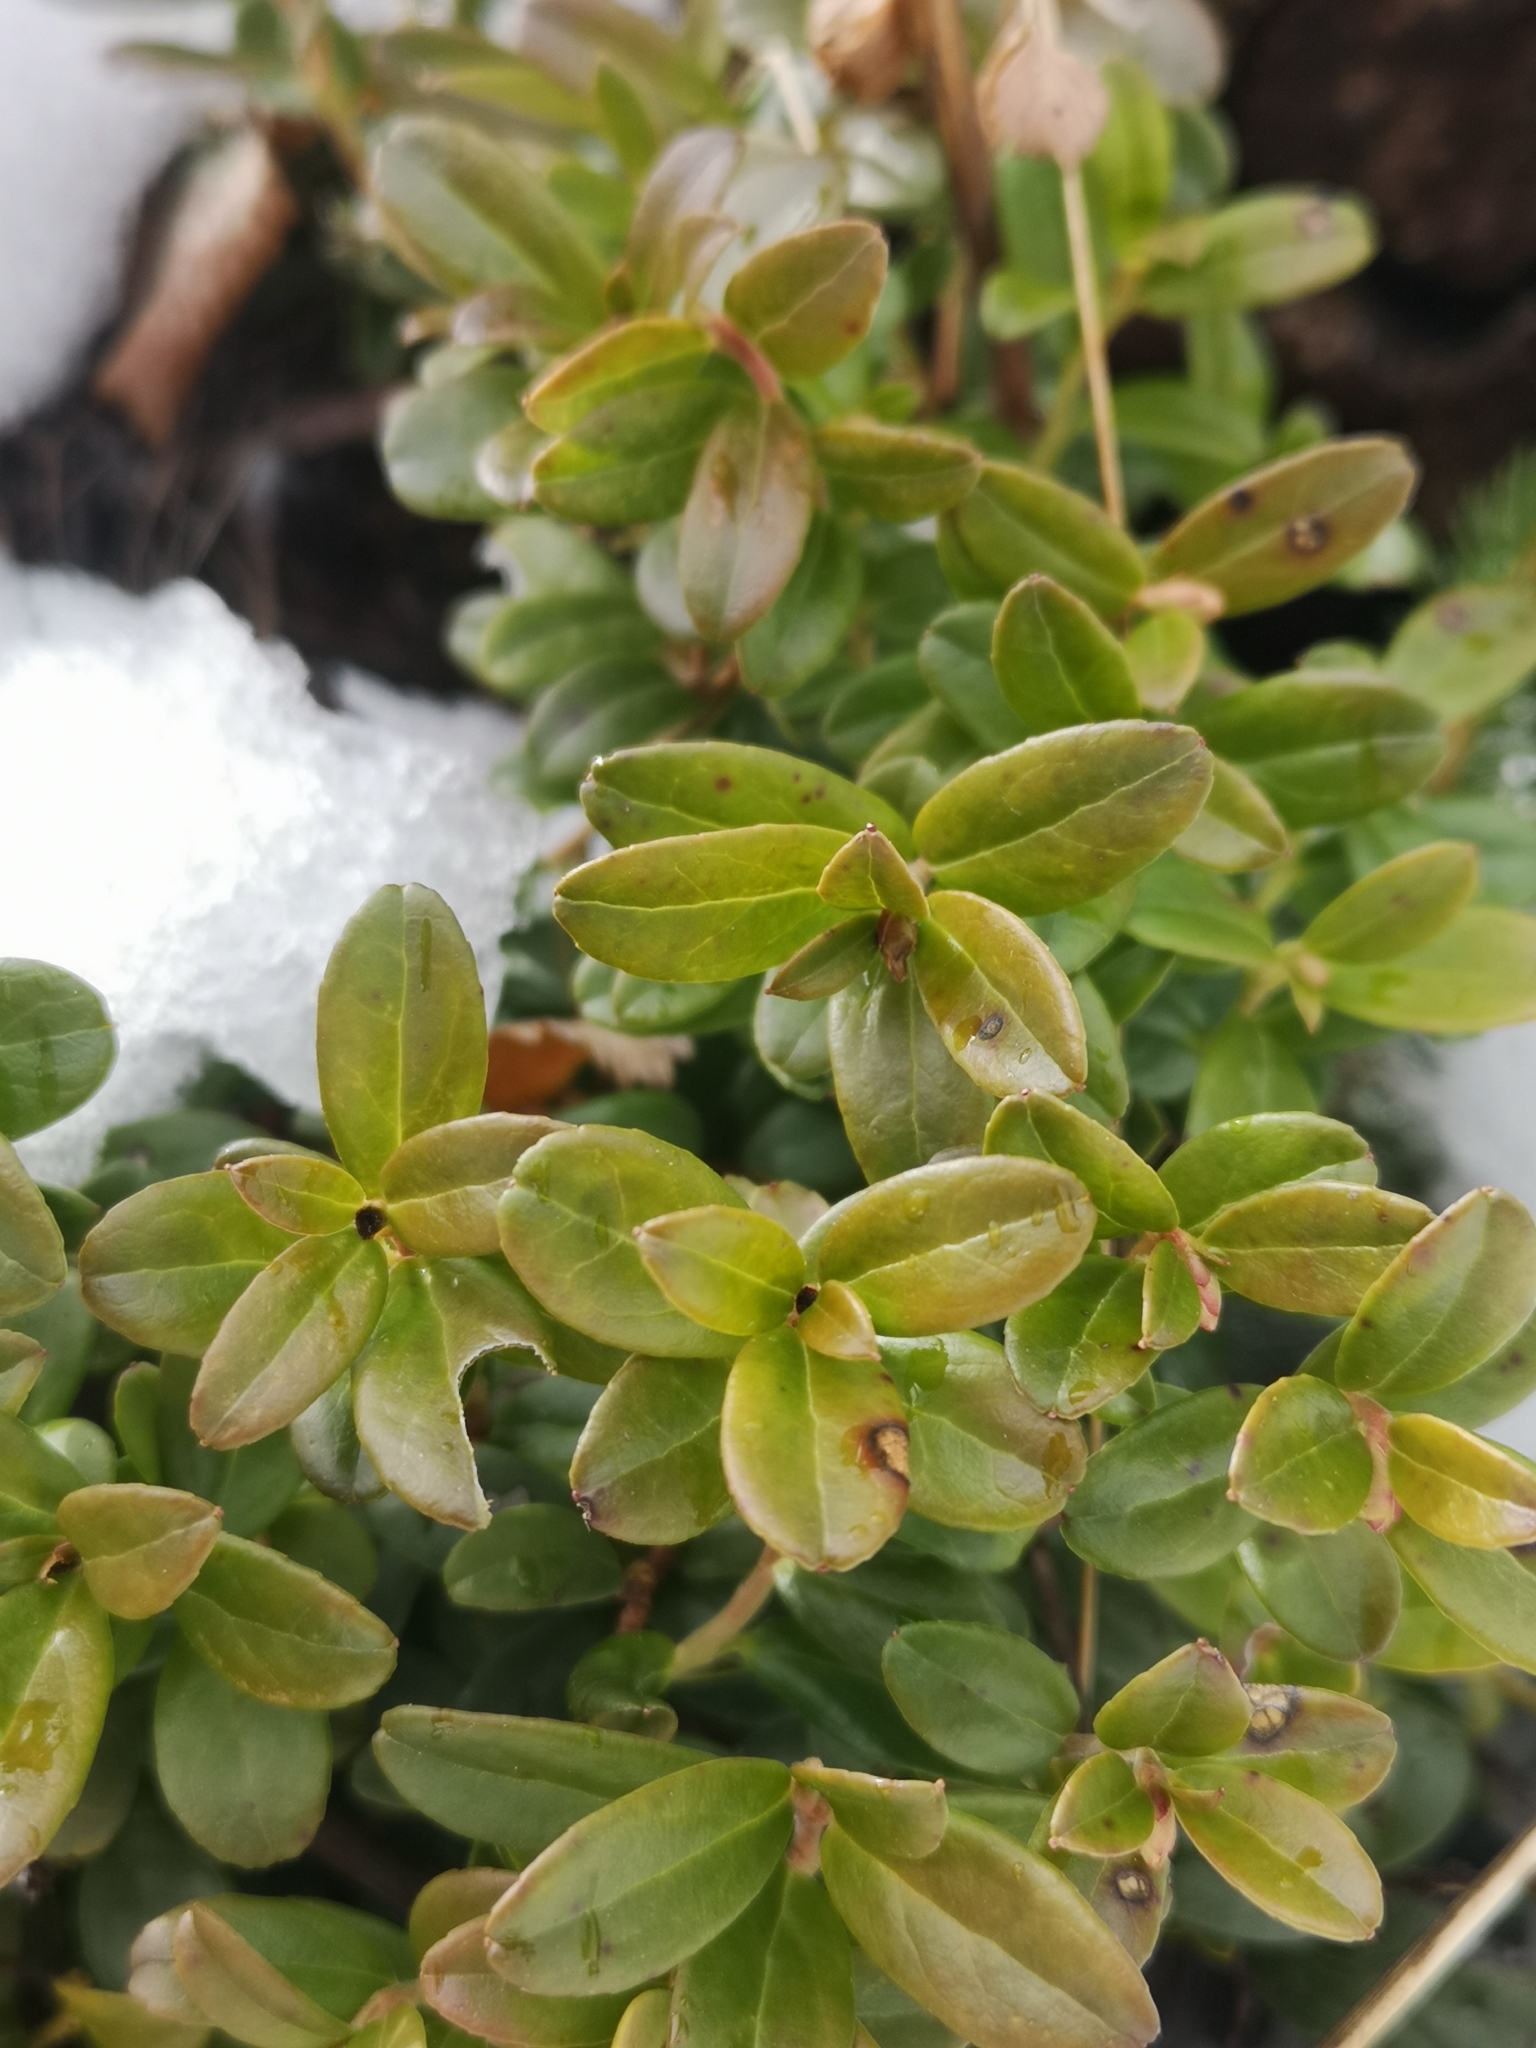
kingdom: Plantae
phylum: Tracheophyta
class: Magnoliopsida
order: Ericales
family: Ericaceae
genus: Vaccinium
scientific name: Vaccinium vitis-idaea
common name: Cowberry
